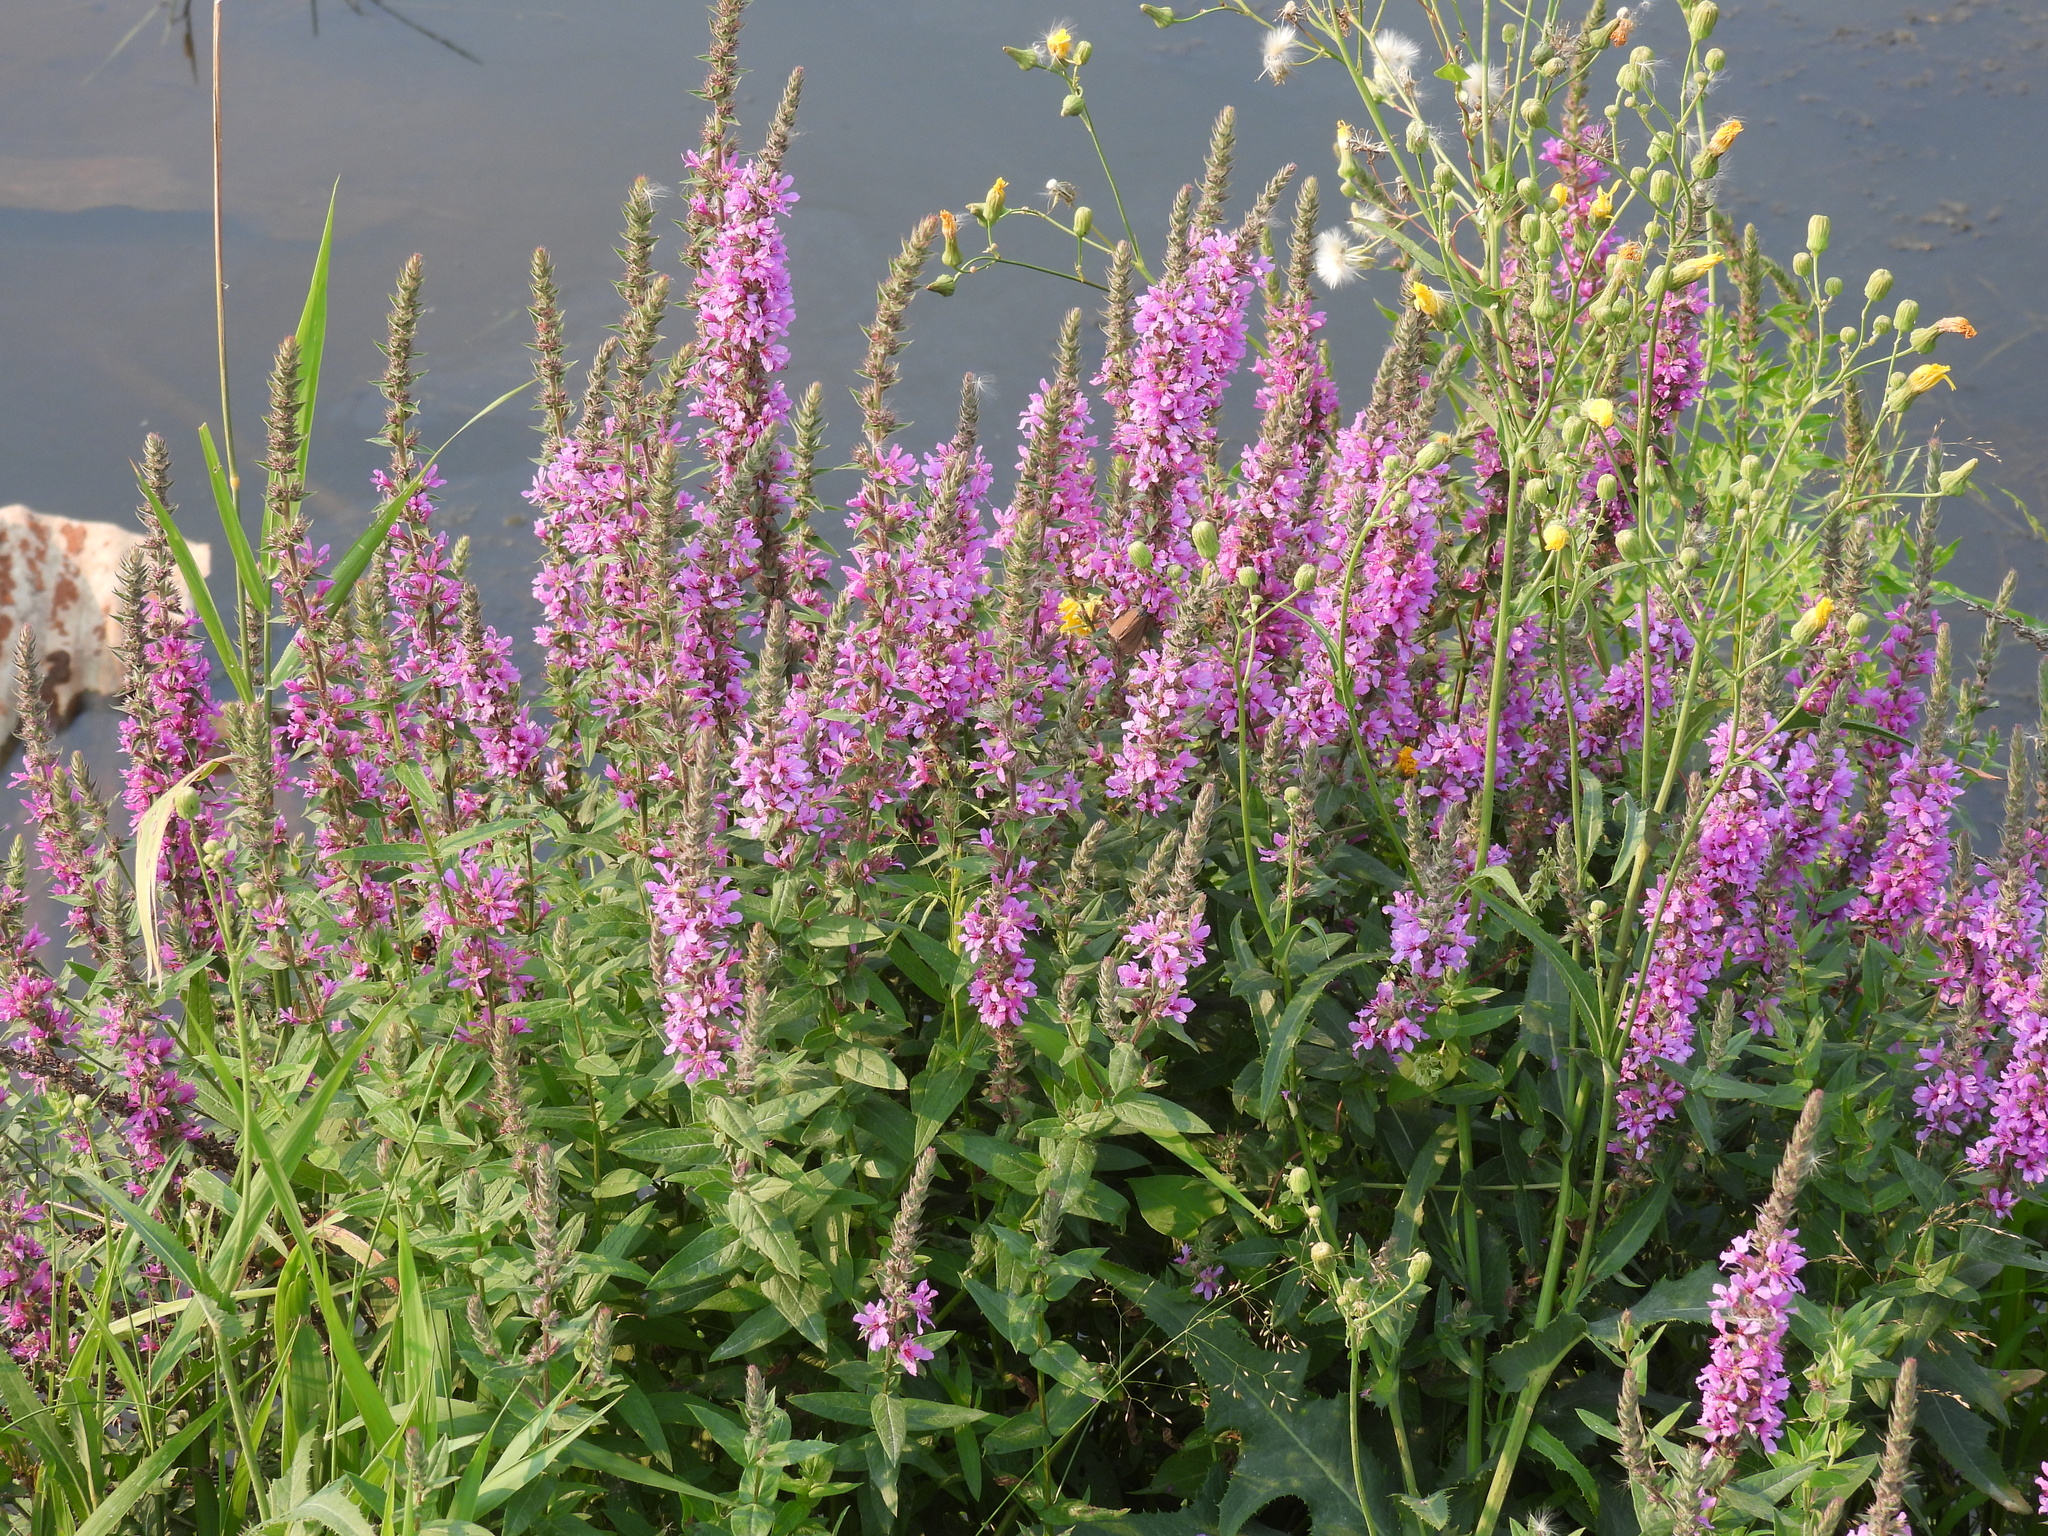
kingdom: Plantae
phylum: Tracheophyta
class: Magnoliopsida
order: Myrtales
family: Lythraceae
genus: Lythrum
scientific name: Lythrum salicaria
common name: Purple loosestrife
